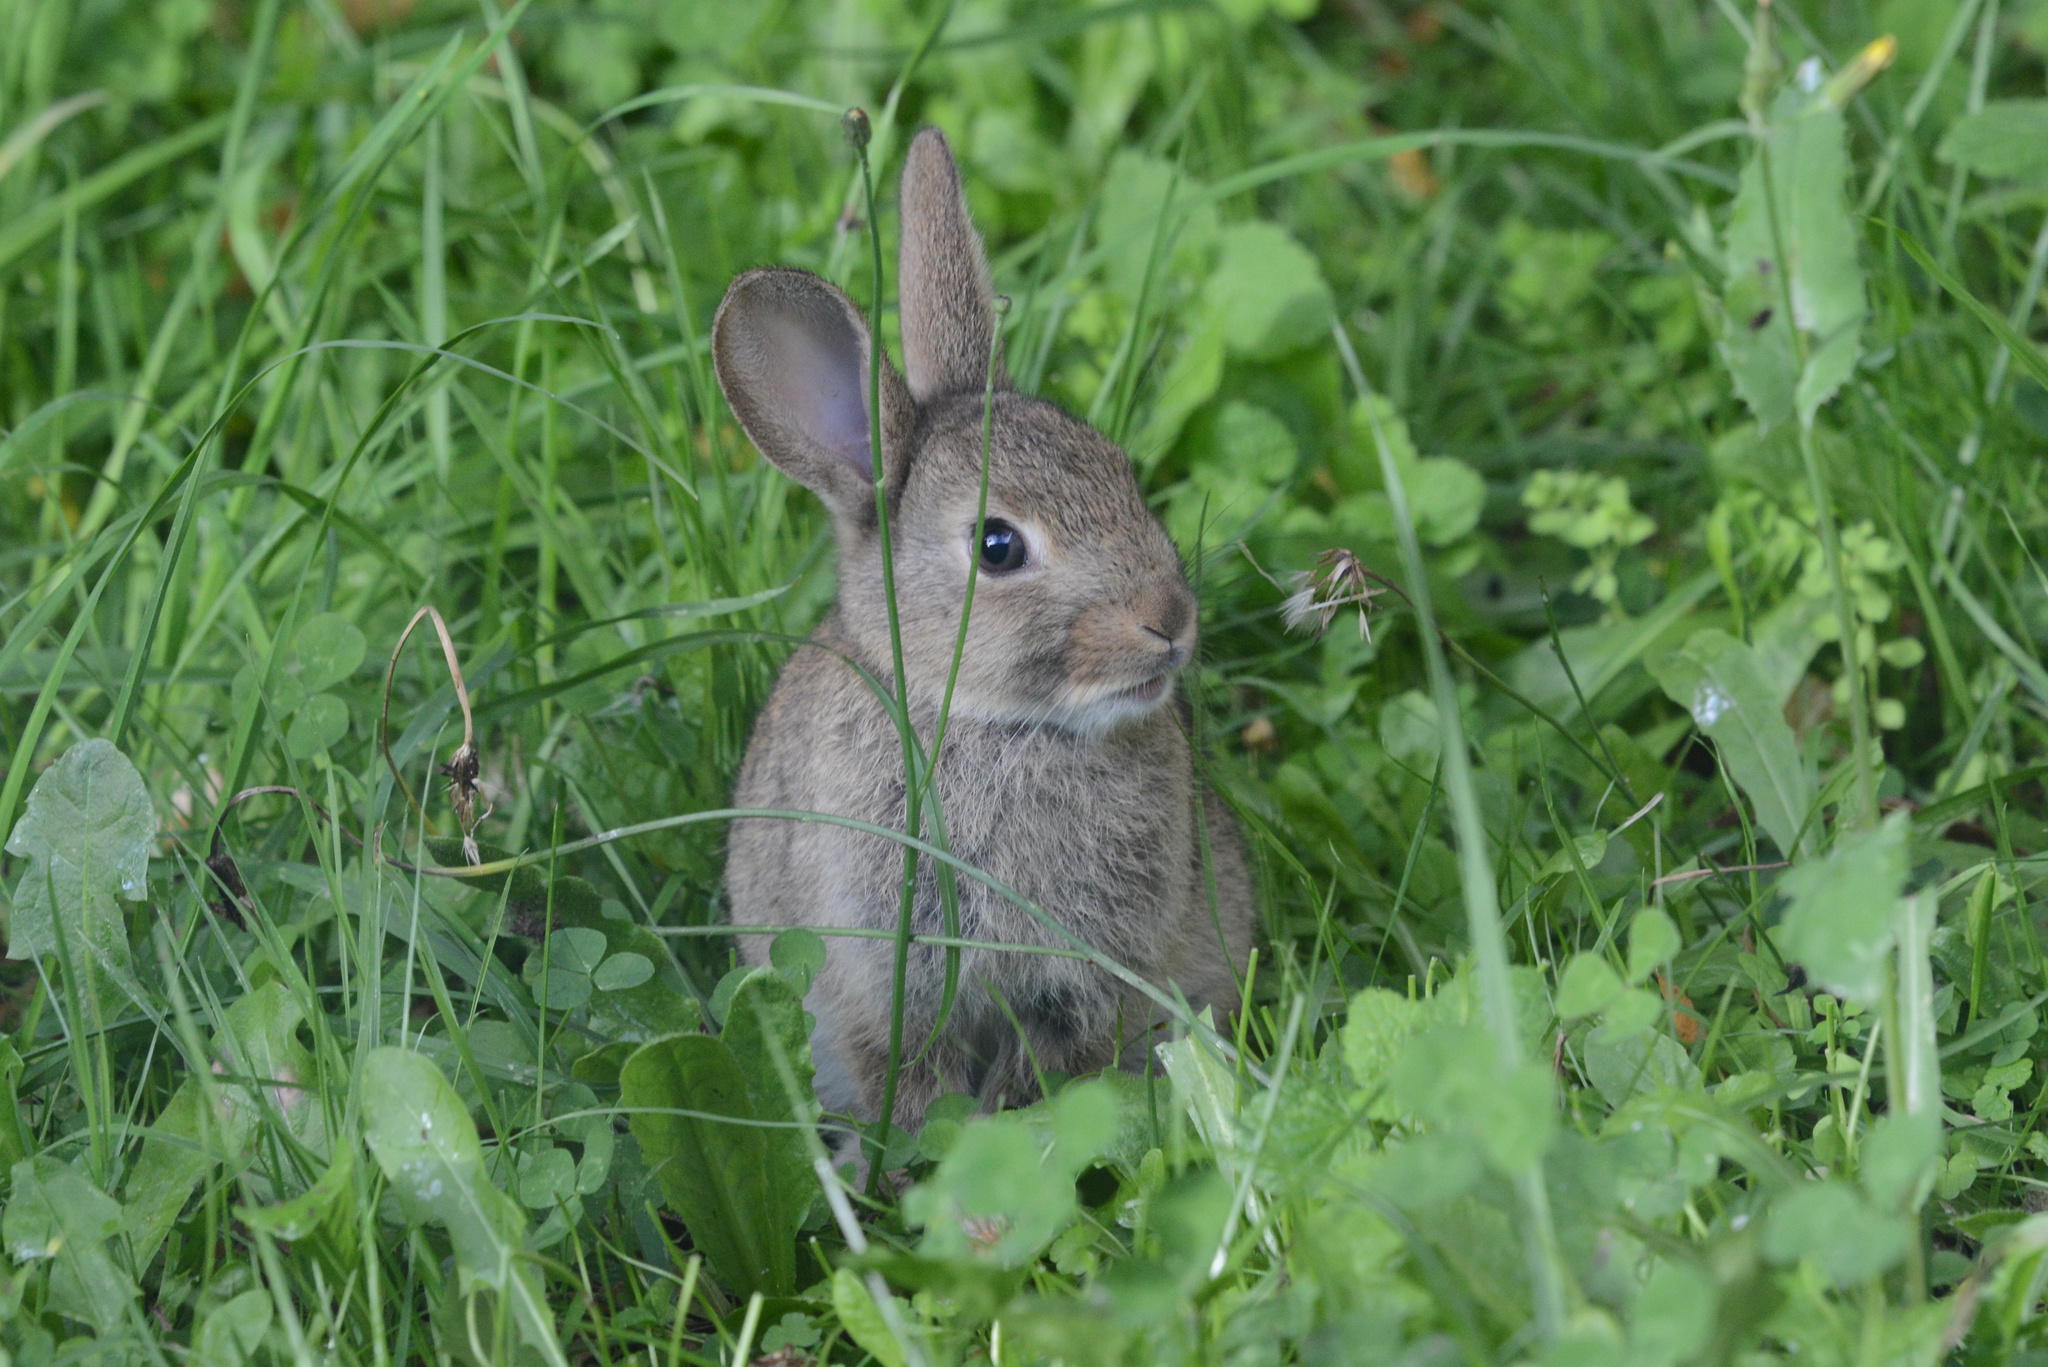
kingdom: Animalia
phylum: Chordata
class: Mammalia
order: Lagomorpha
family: Leporidae
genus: Oryctolagus
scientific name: Oryctolagus cuniculus
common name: European rabbit
